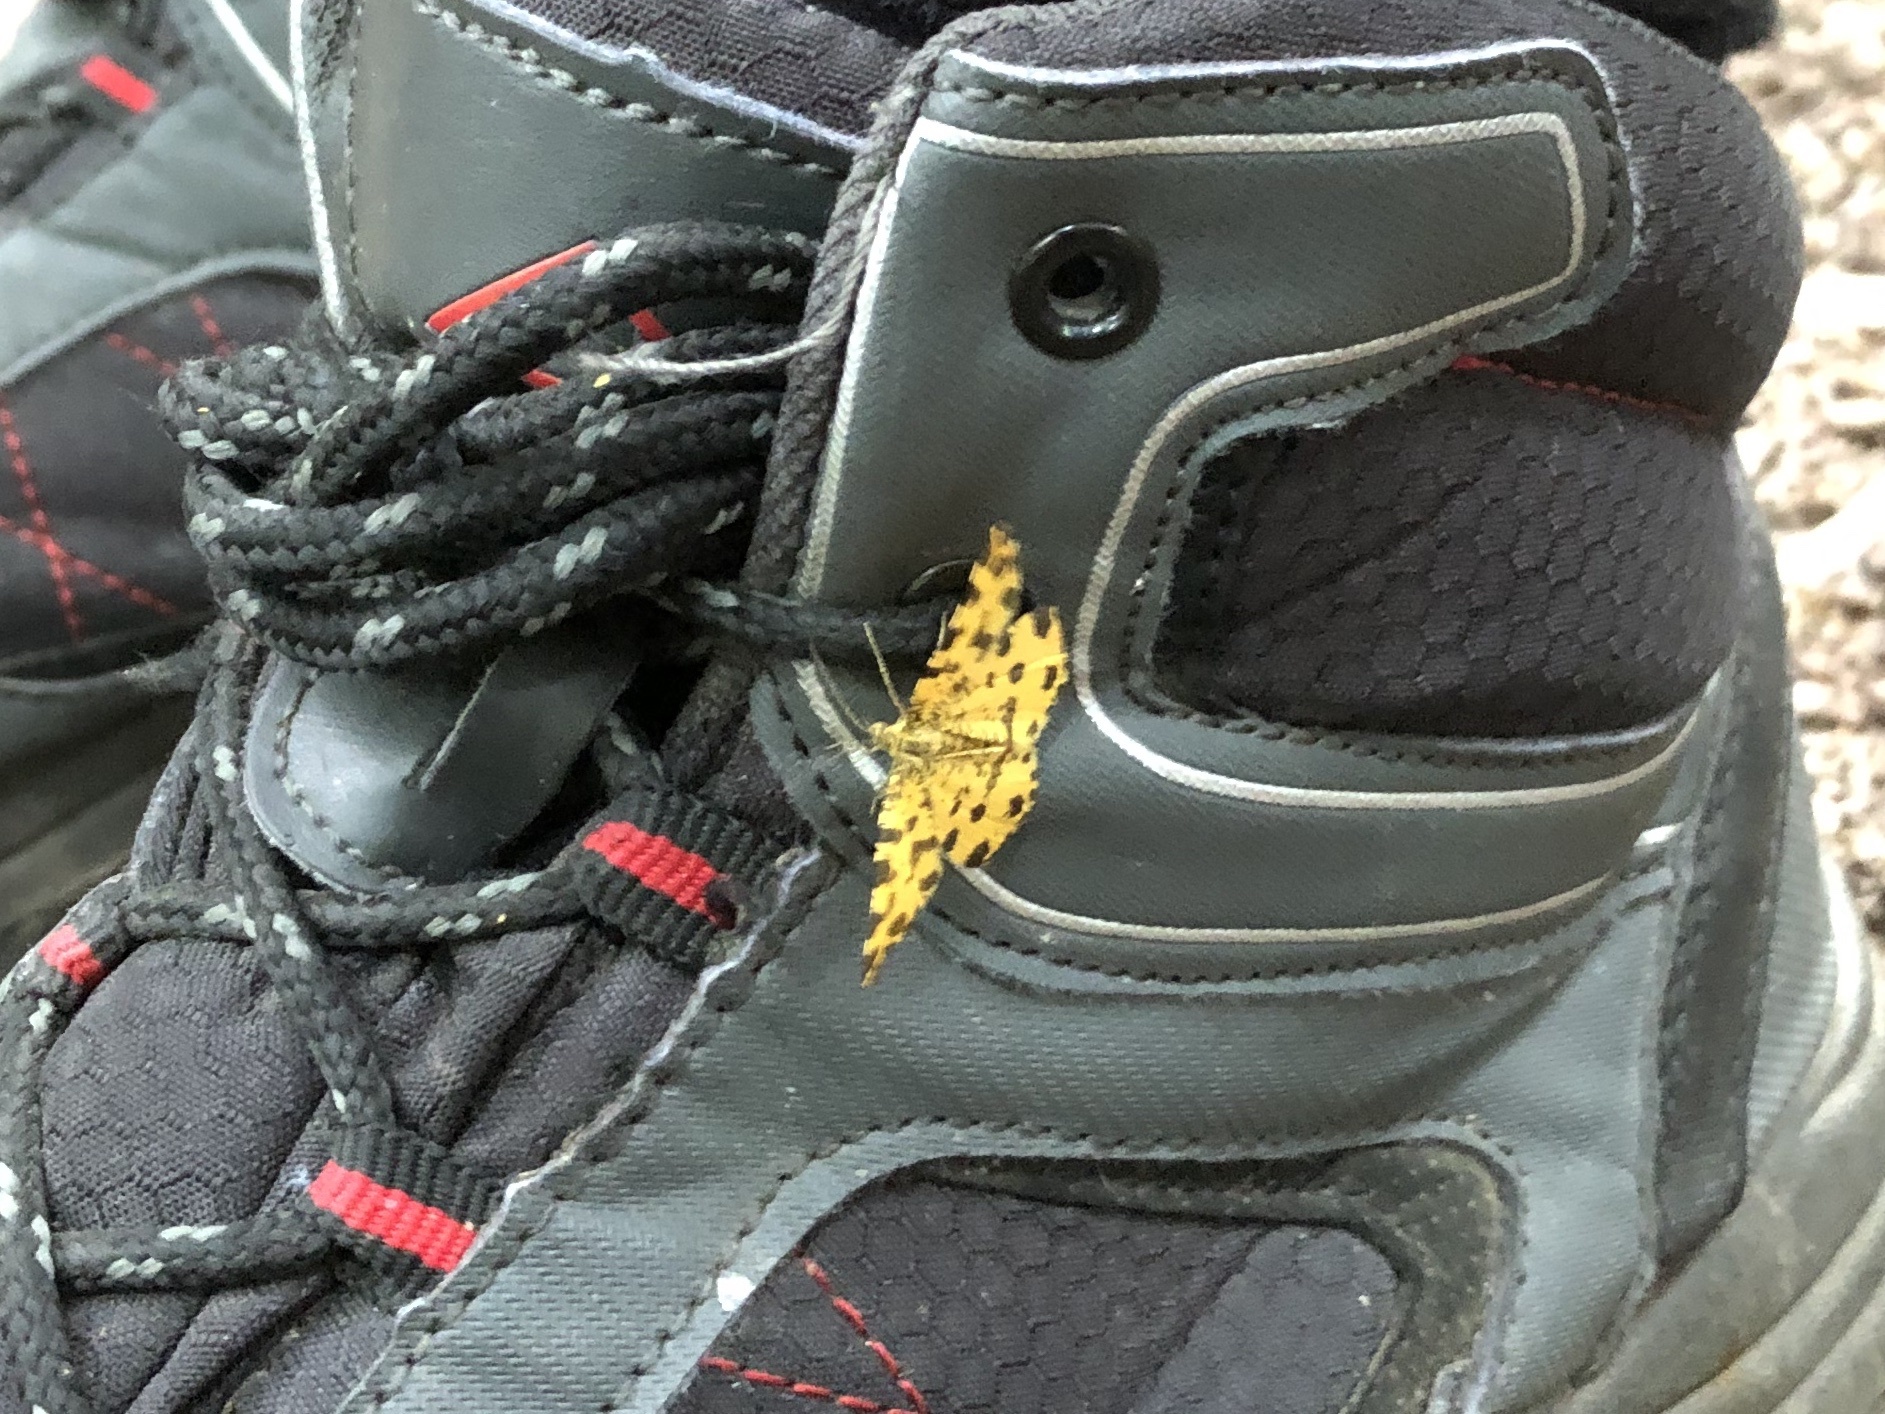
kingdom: Animalia
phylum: Arthropoda
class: Insecta
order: Lepidoptera
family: Geometridae
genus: Pseudopanthera
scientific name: Pseudopanthera macularia
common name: Speckled yellow
